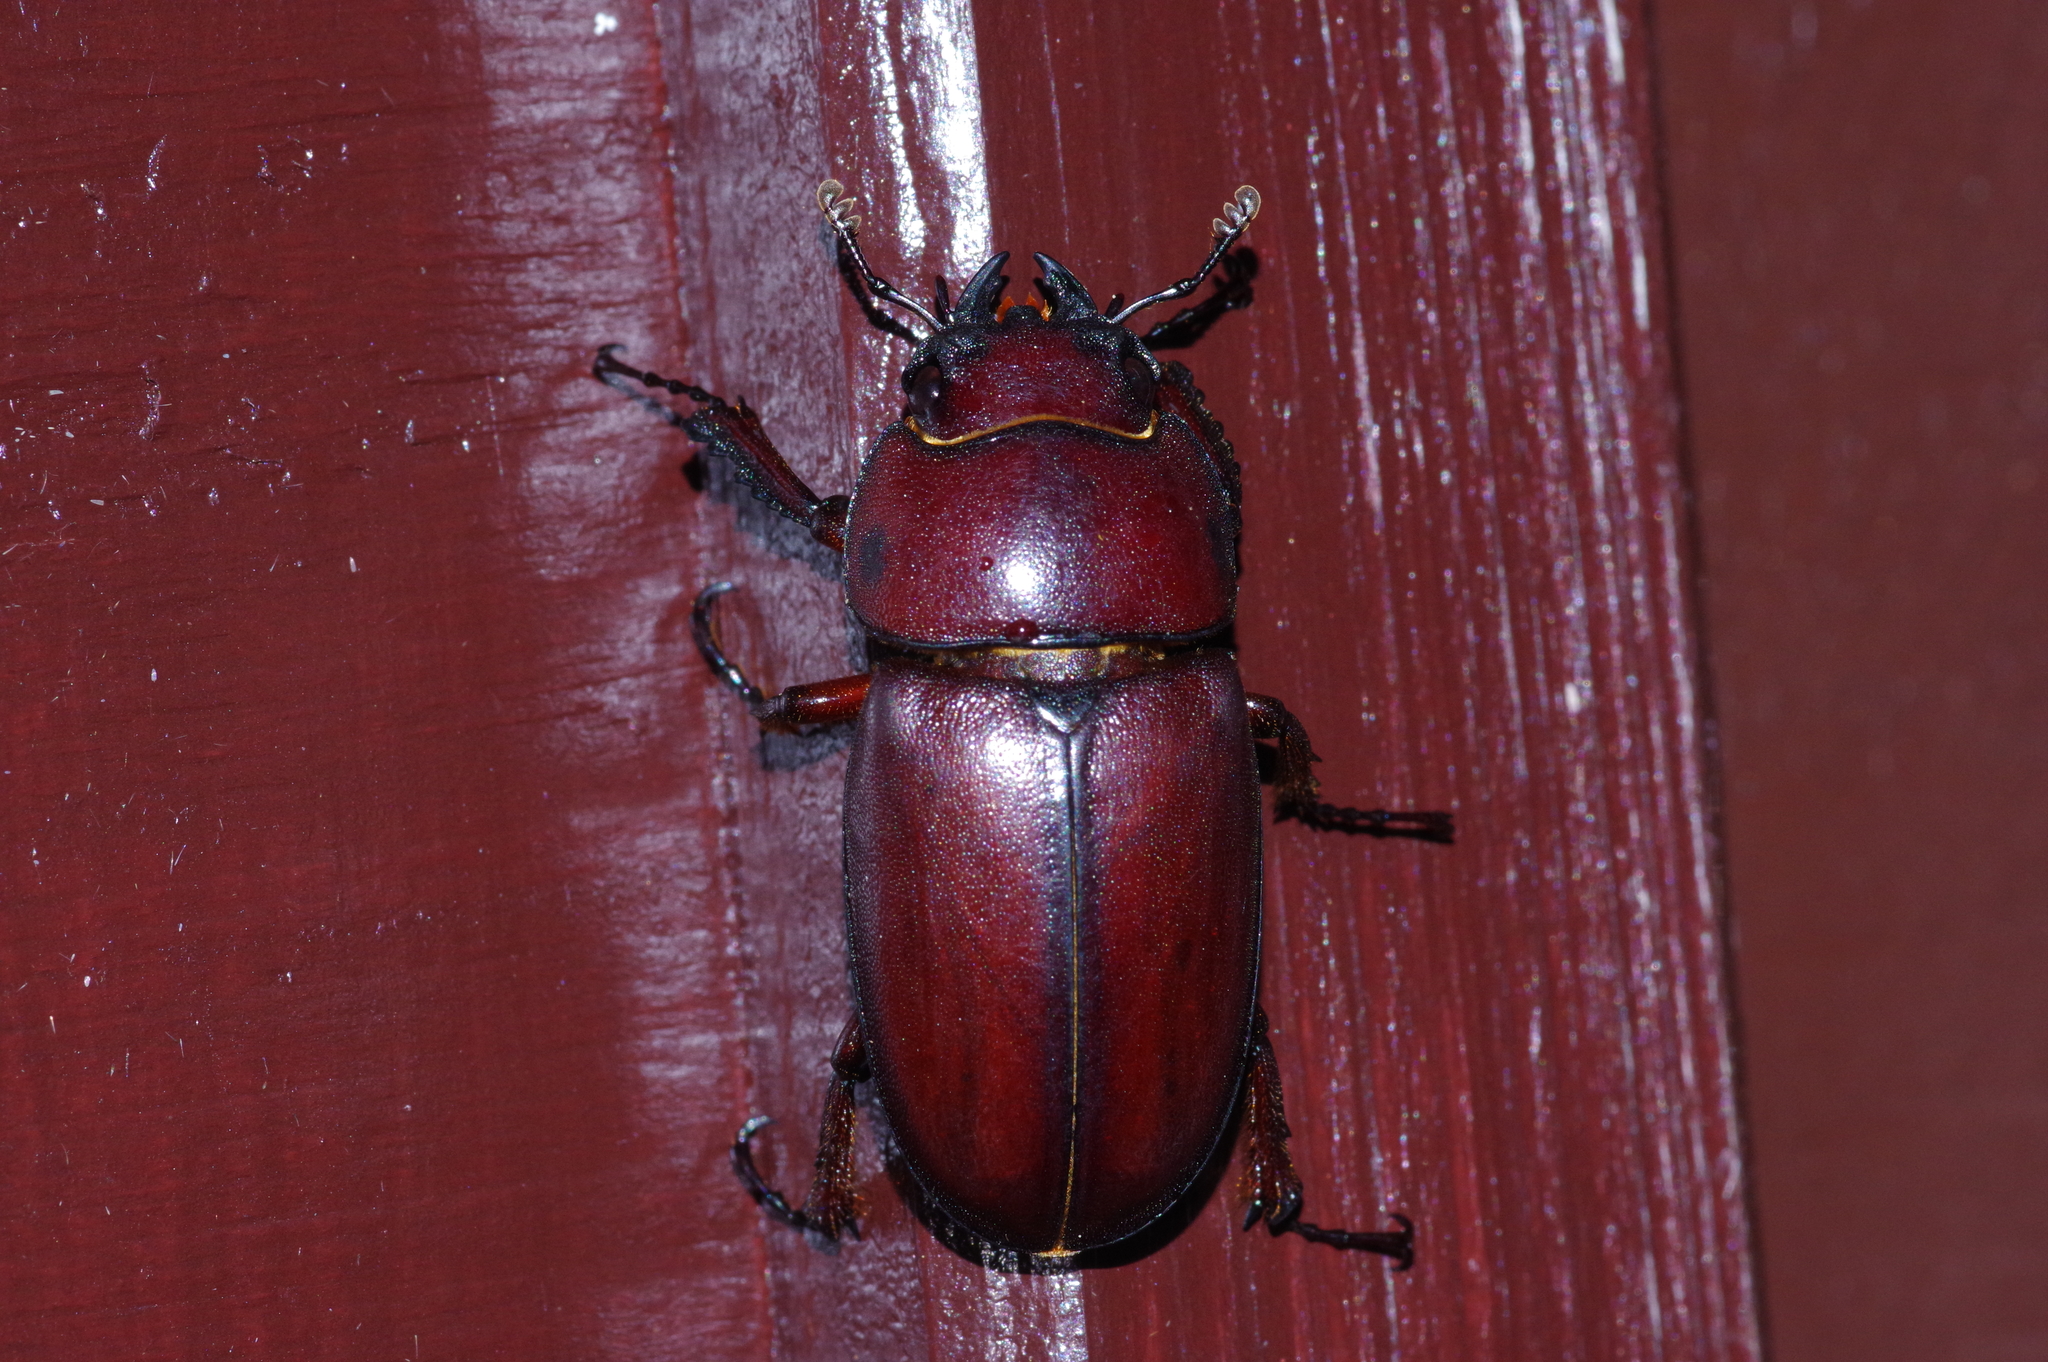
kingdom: Animalia
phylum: Arthropoda
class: Insecta
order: Coleoptera
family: Lucanidae
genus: Prosopocoilus
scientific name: Prosopocoilus dissimilis
